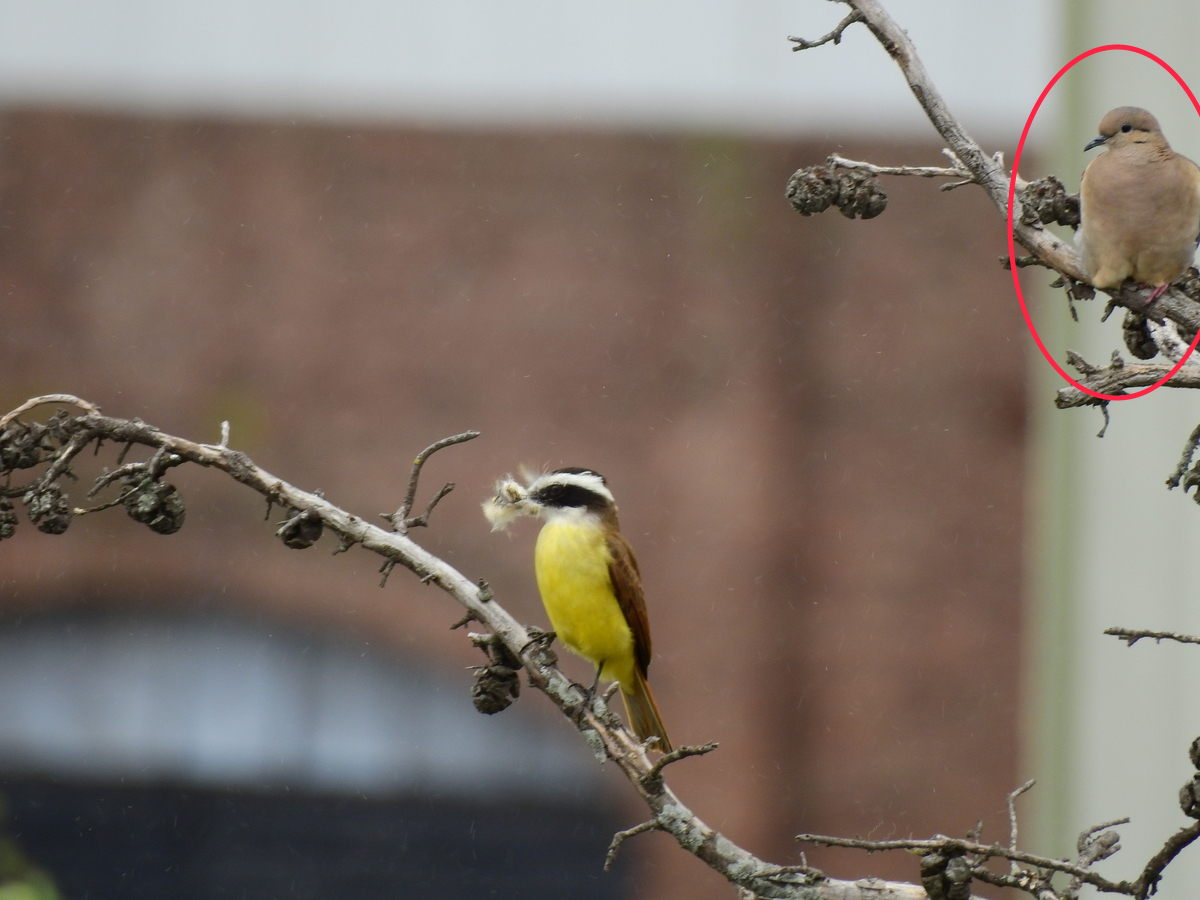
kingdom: Animalia
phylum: Chordata
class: Aves
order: Columbiformes
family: Columbidae
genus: Zenaida
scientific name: Zenaida auriculata
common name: Eared dove
